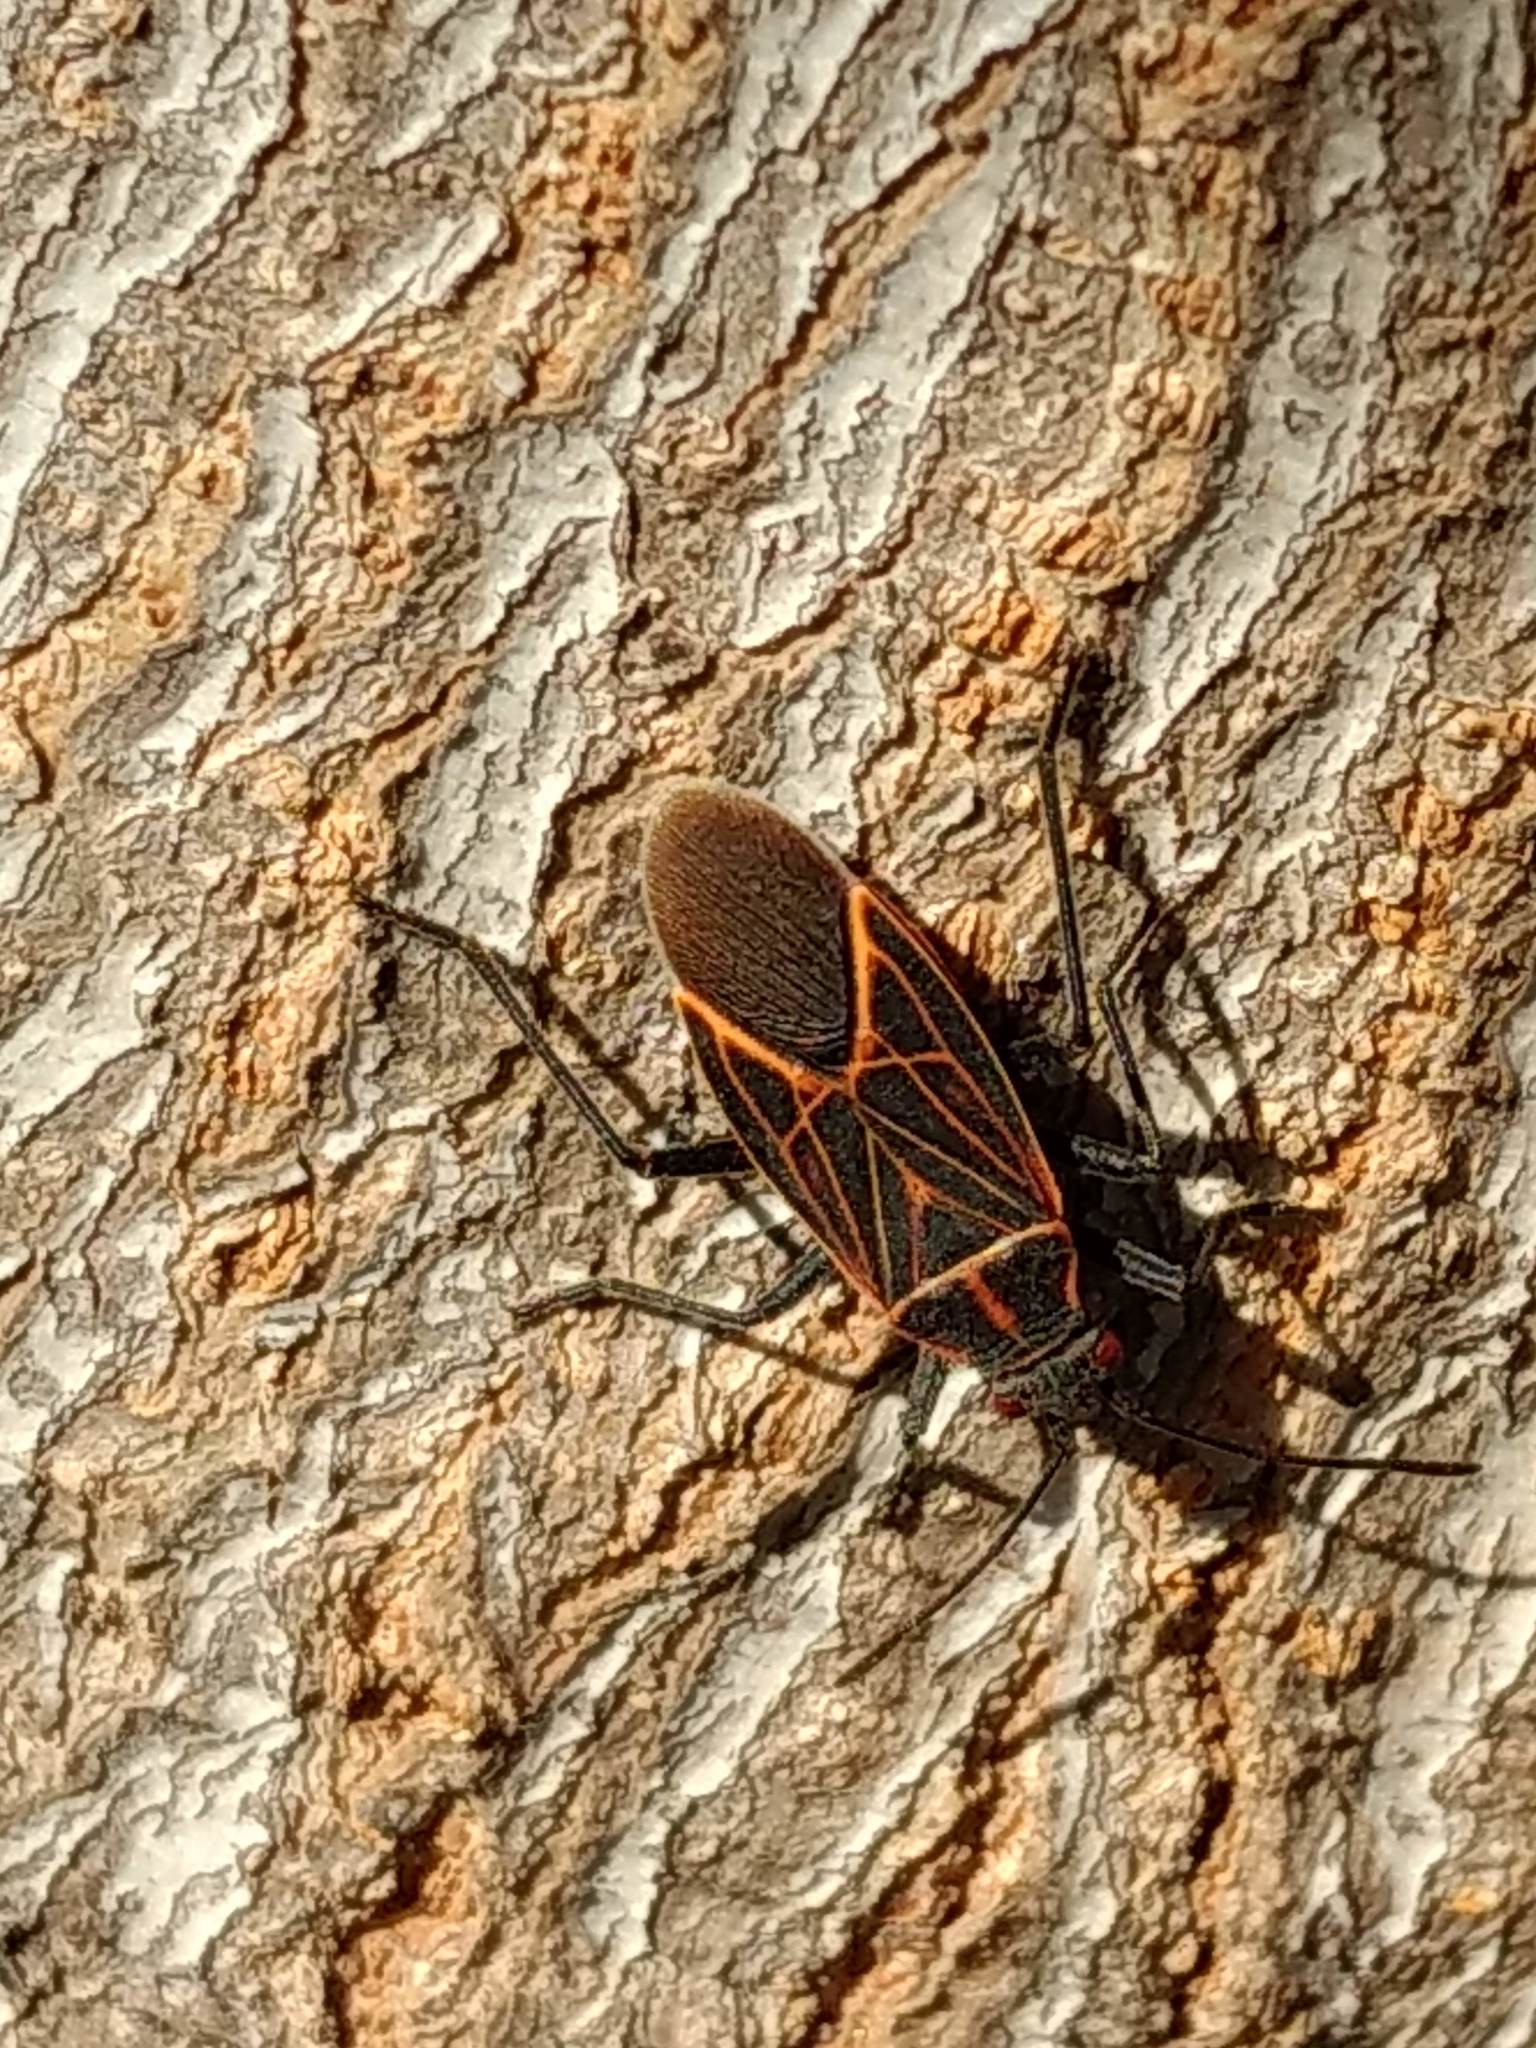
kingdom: Animalia
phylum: Arthropoda
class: Insecta
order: Hemiptera
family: Rhopalidae
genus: Boisea
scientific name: Boisea rubrolineata
